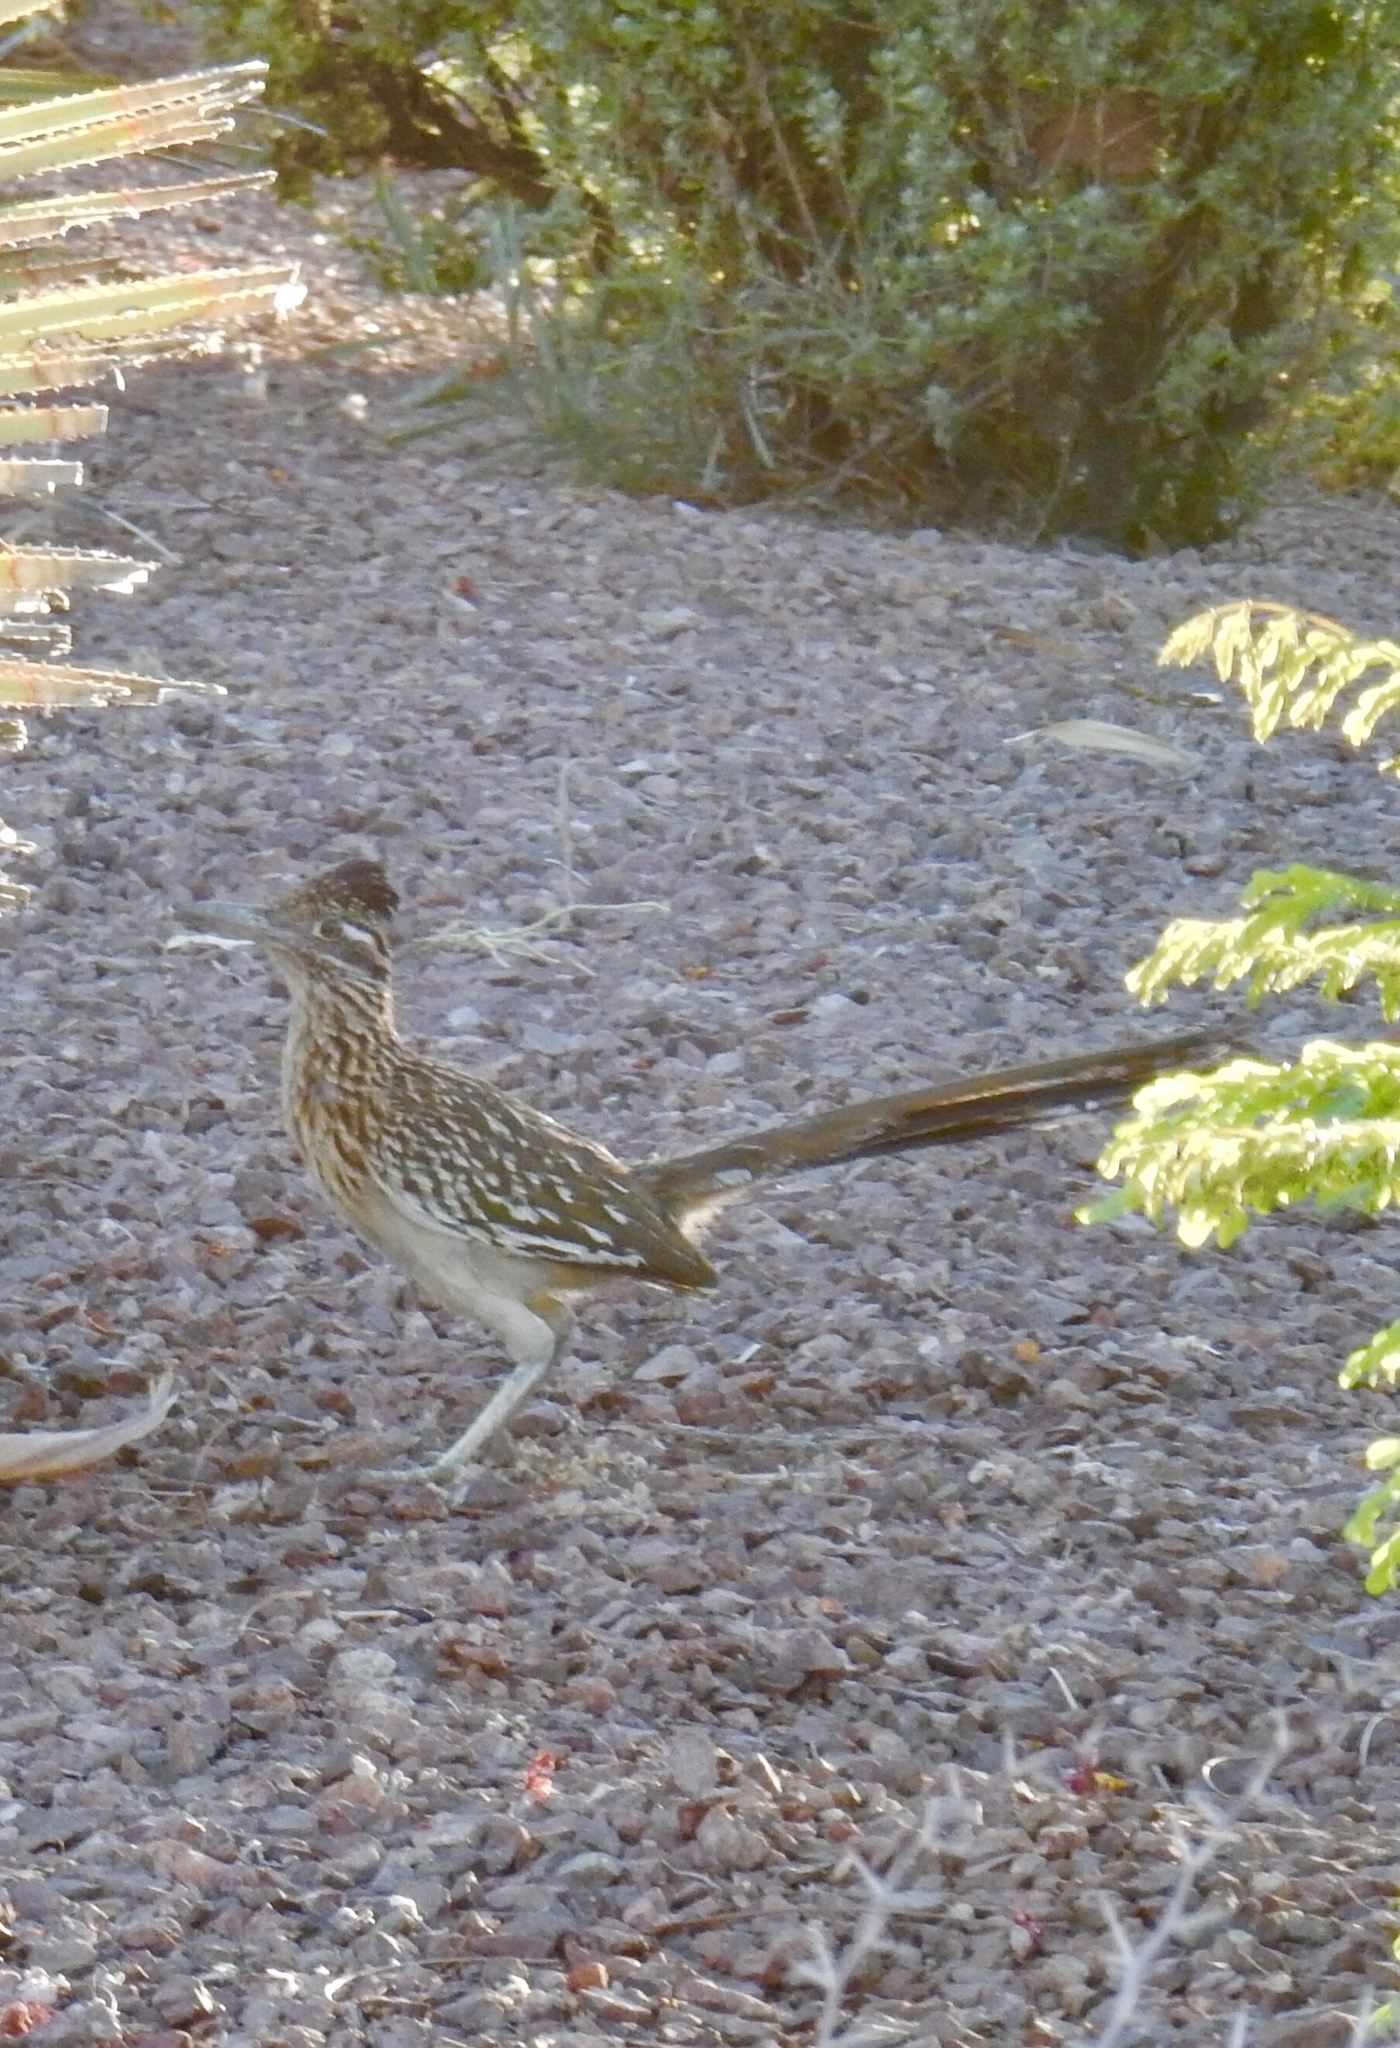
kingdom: Animalia
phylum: Chordata
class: Aves
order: Cuculiformes
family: Cuculidae
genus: Geococcyx
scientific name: Geococcyx californianus
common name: Greater roadrunner
